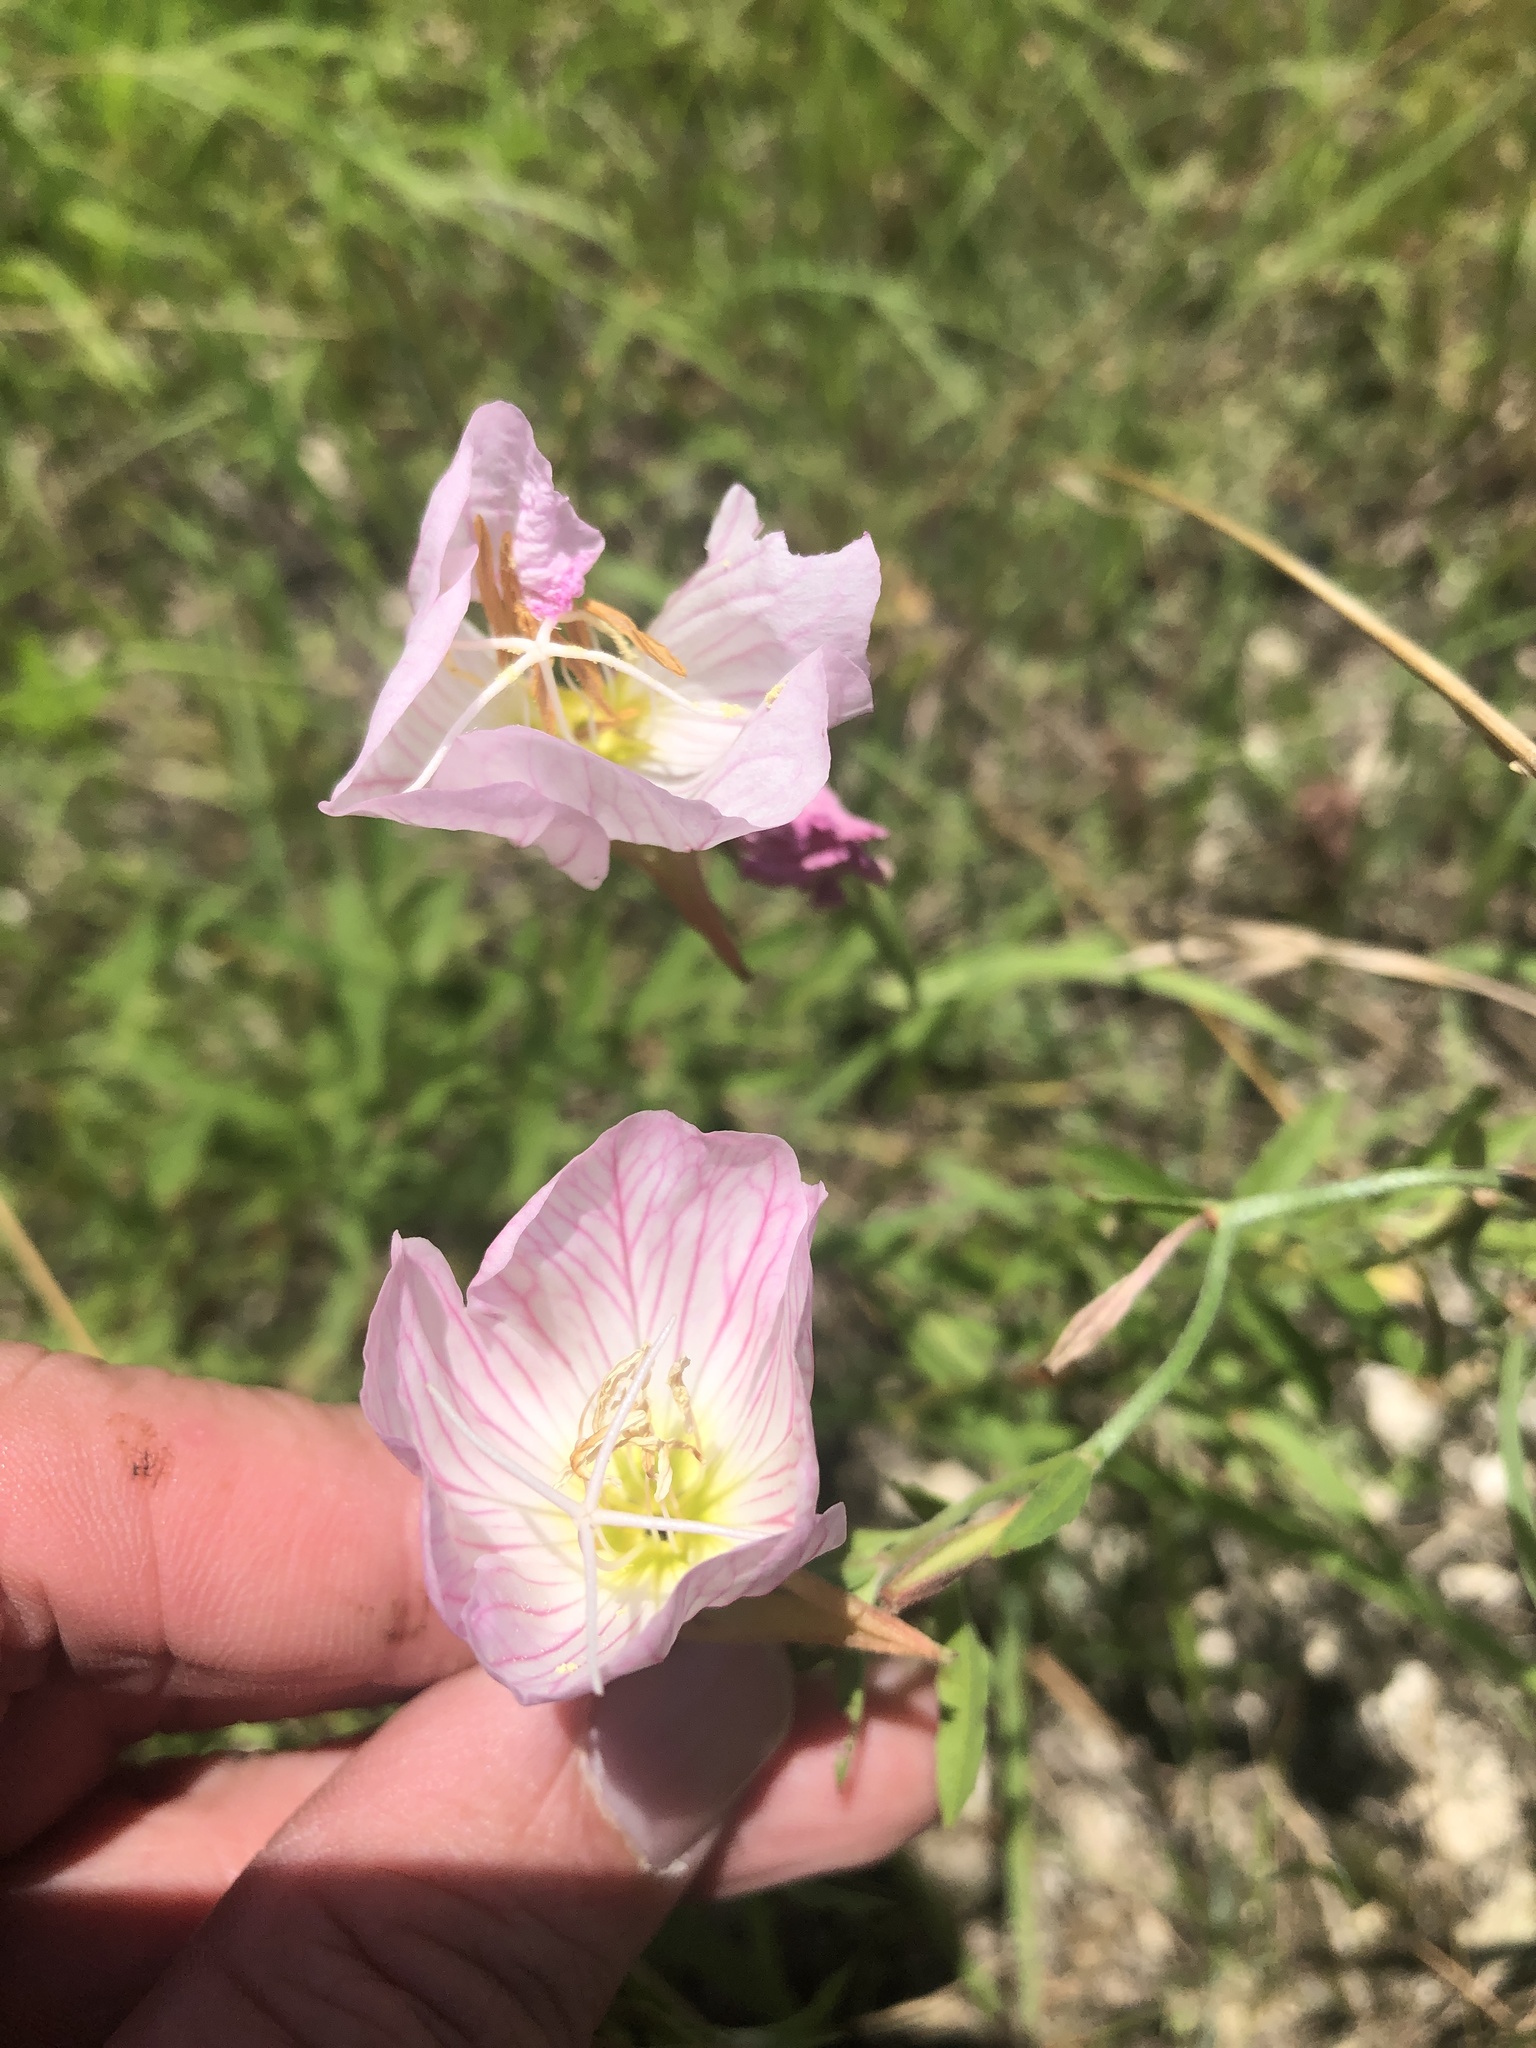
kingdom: Plantae
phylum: Tracheophyta
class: Magnoliopsida
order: Myrtales
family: Onagraceae
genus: Oenothera
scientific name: Oenothera speciosa
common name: White evening-primrose
